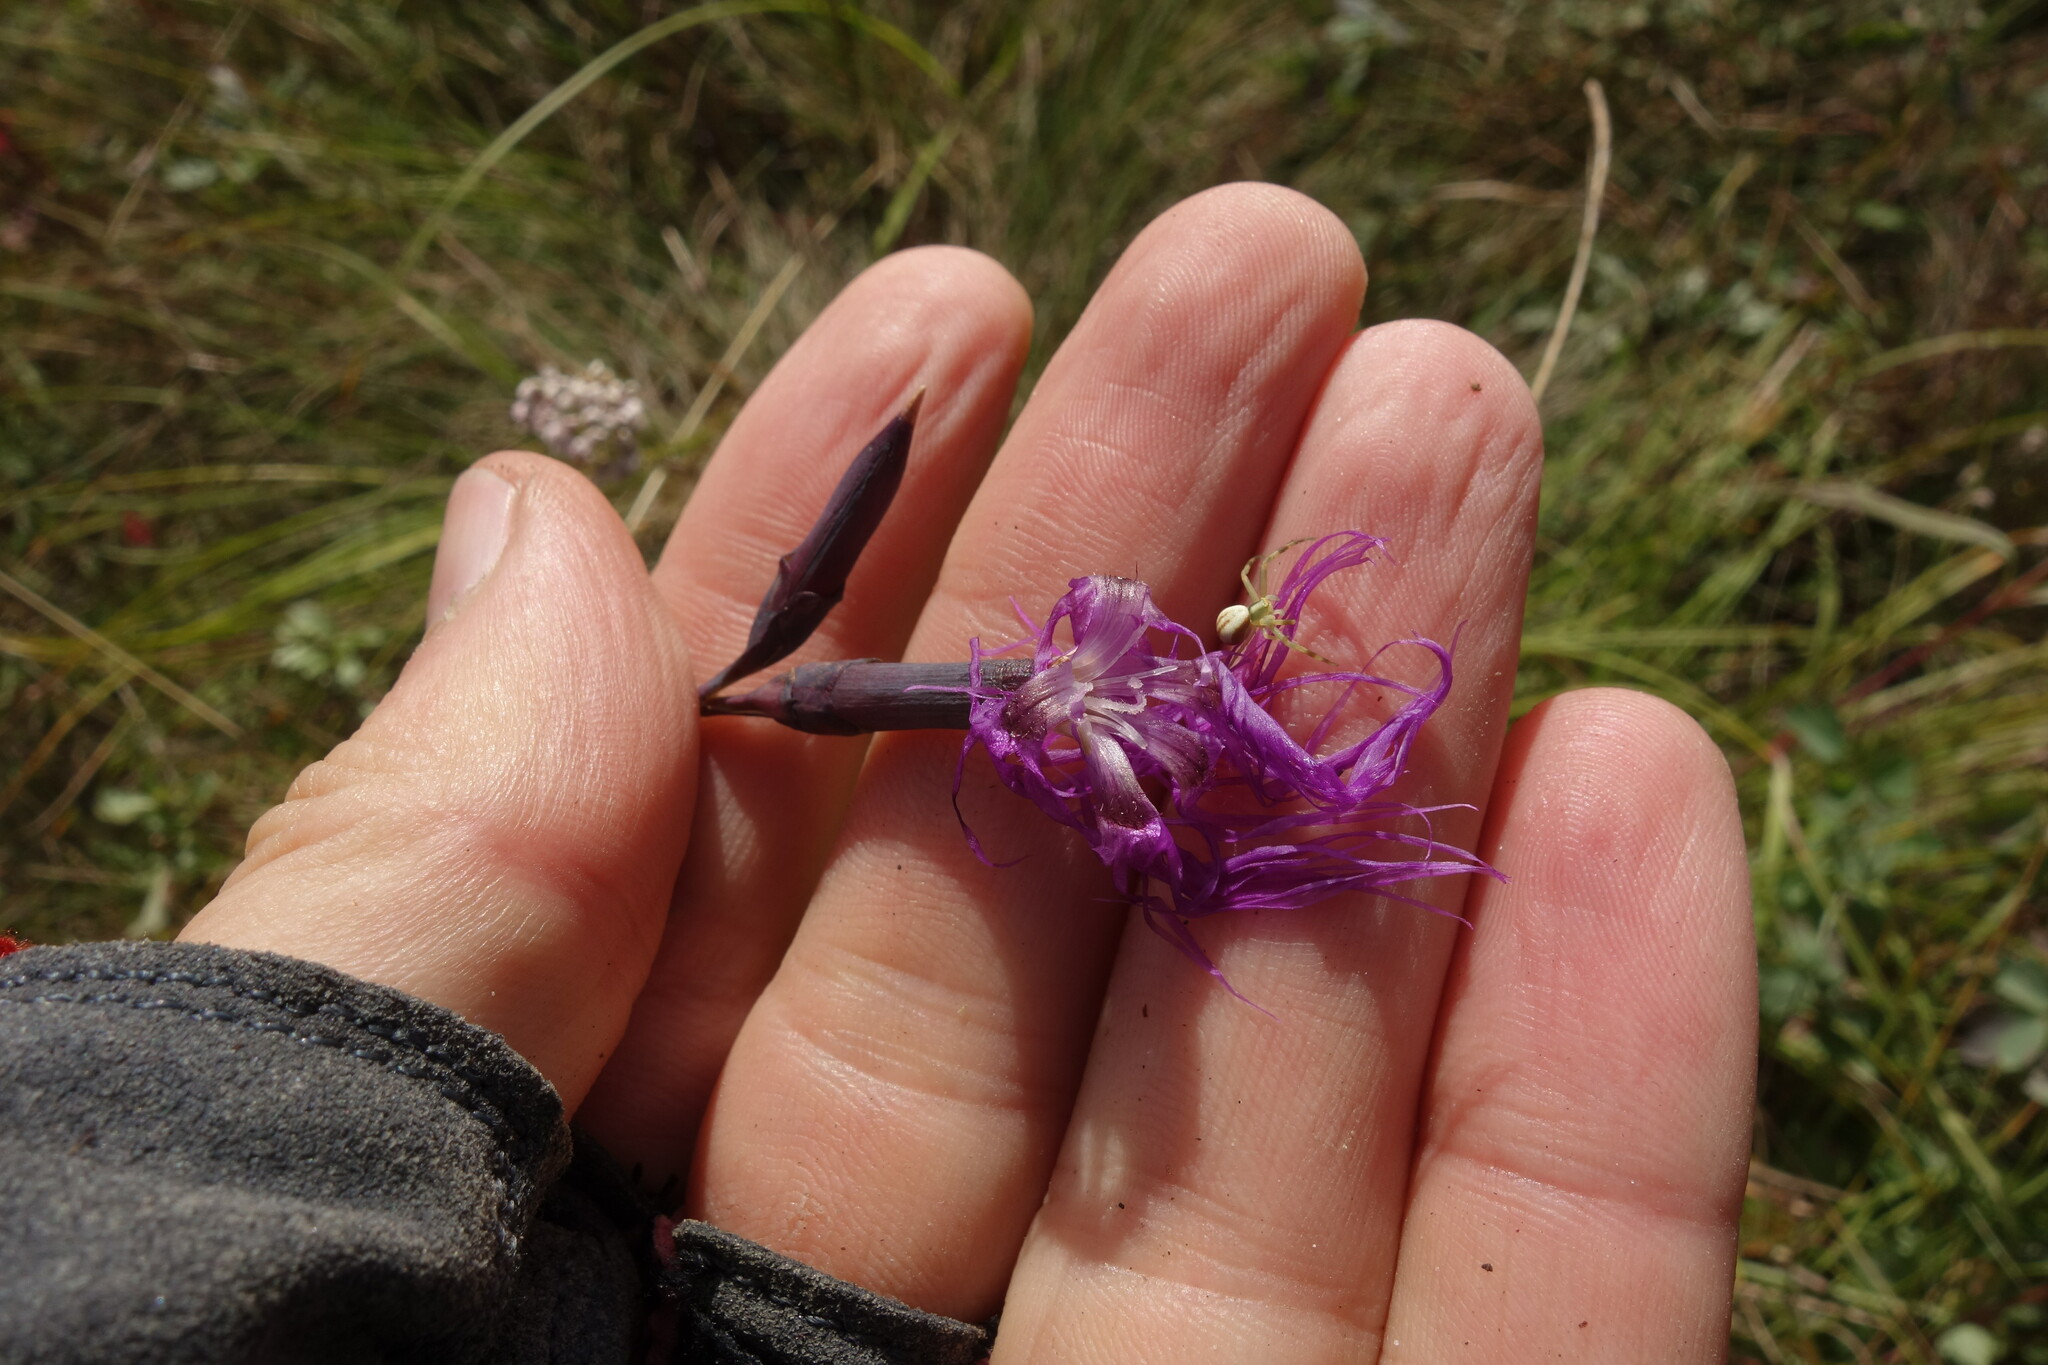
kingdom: Plantae
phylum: Tracheophyta
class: Magnoliopsida
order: Caryophyllales
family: Caryophyllaceae
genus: Dianthus
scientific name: Dianthus superbus
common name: Fringed pink
